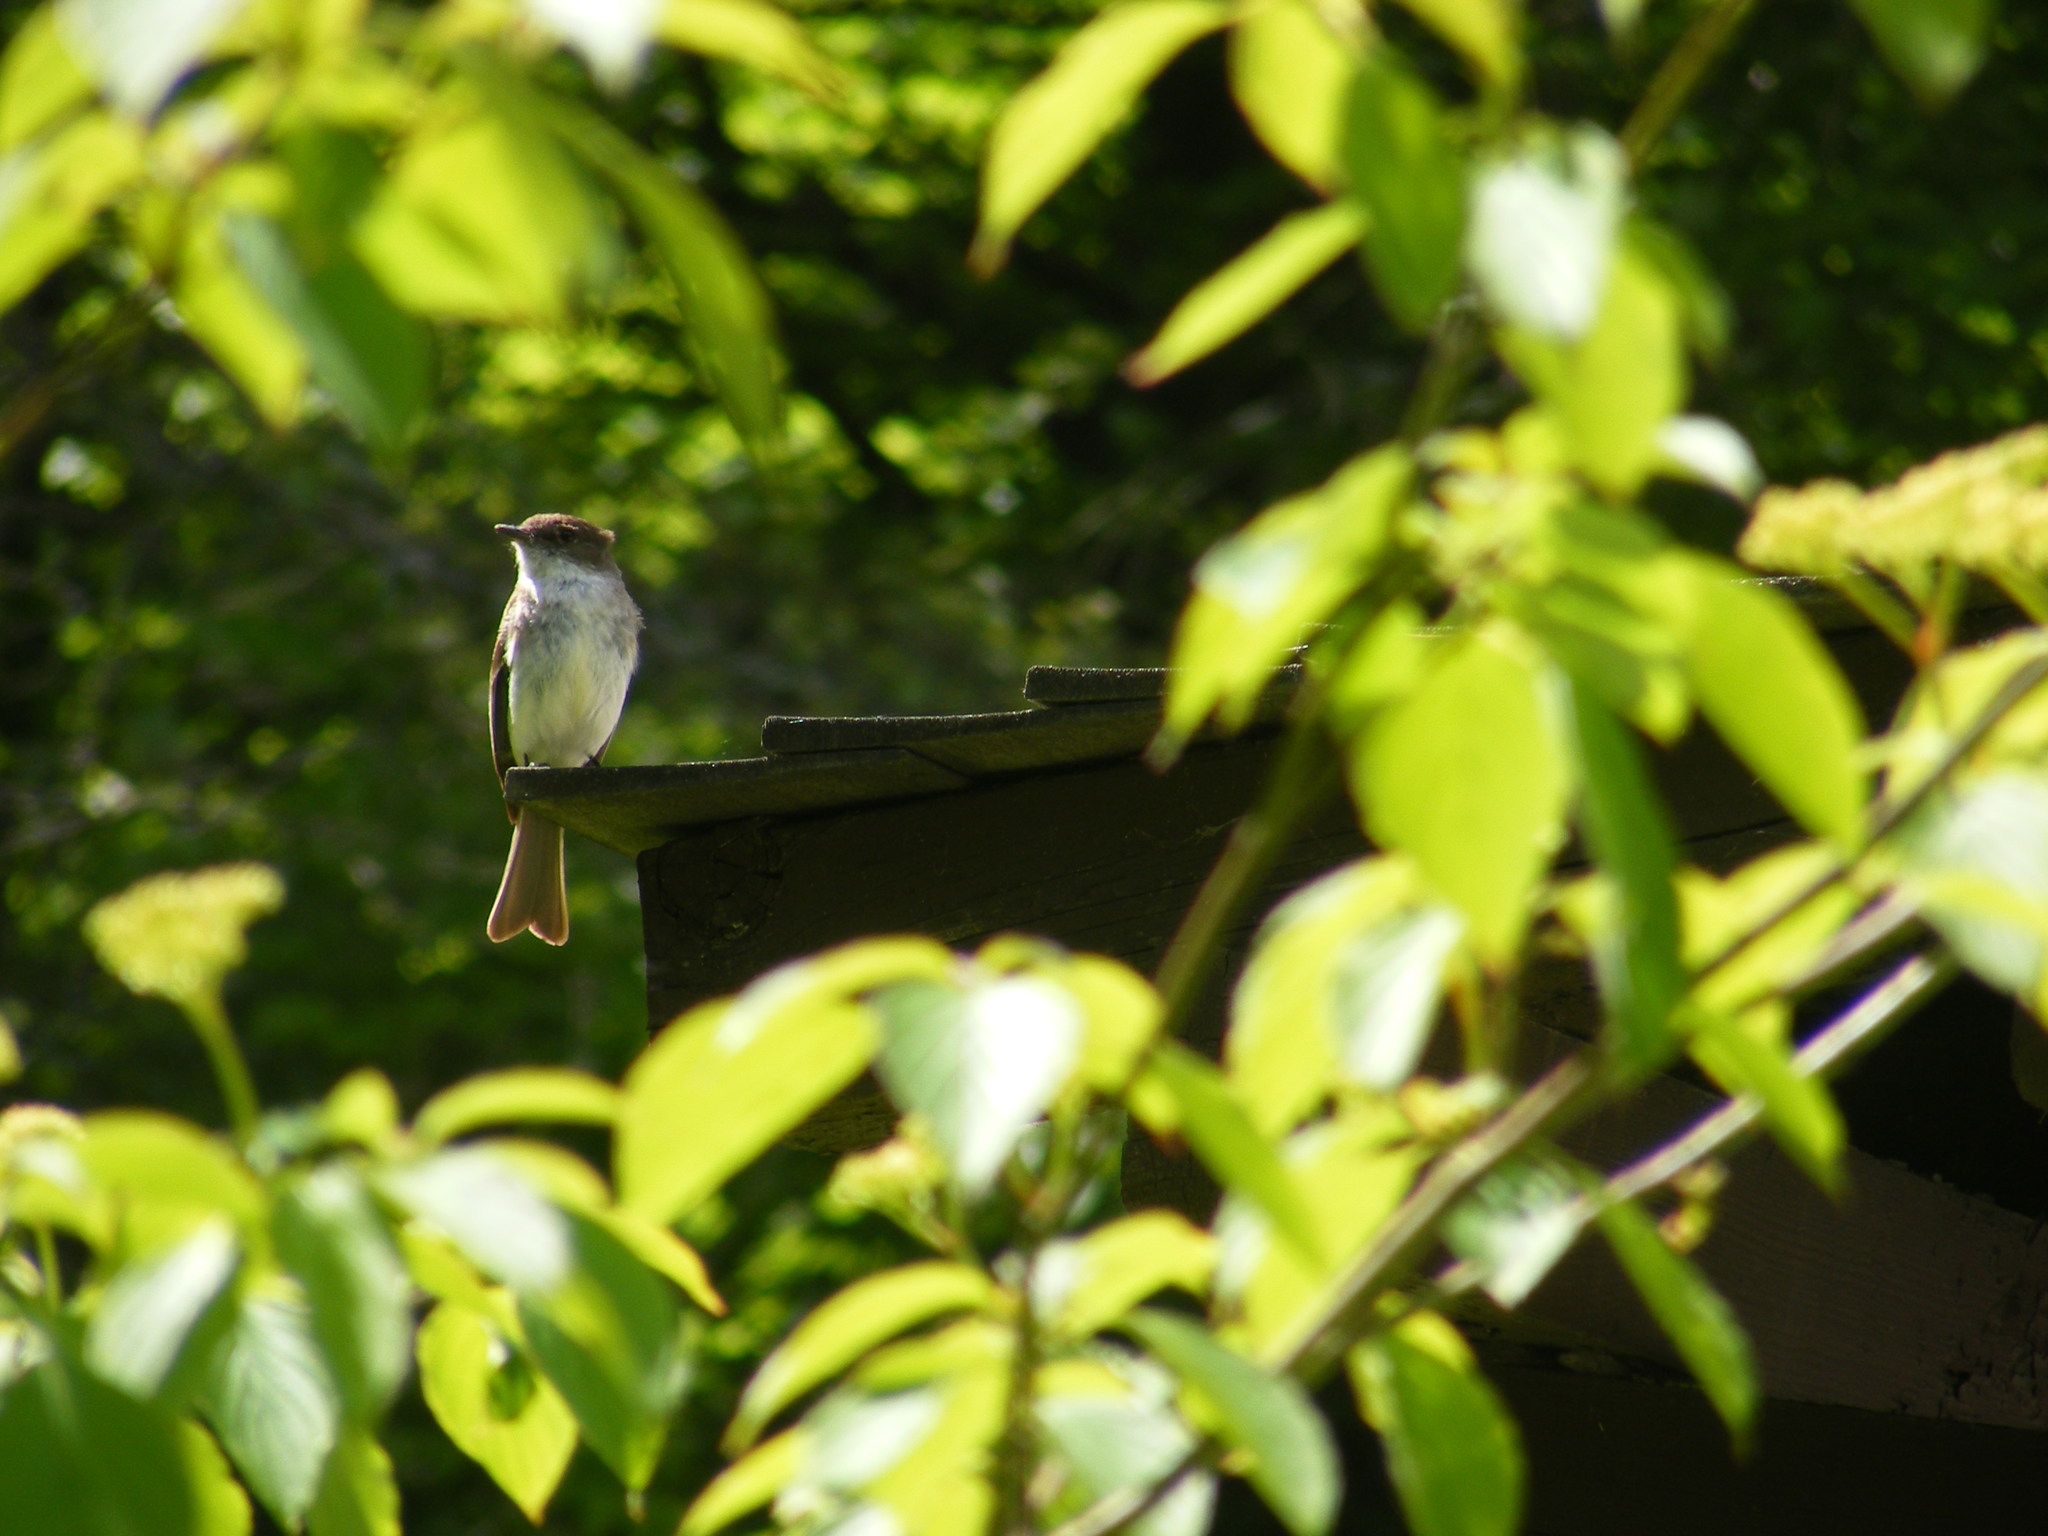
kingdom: Animalia
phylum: Chordata
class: Aves
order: Passeriformes
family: Tyrannidae
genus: Sayornis
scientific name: Sayornis phoebe
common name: Eastern phoebe
